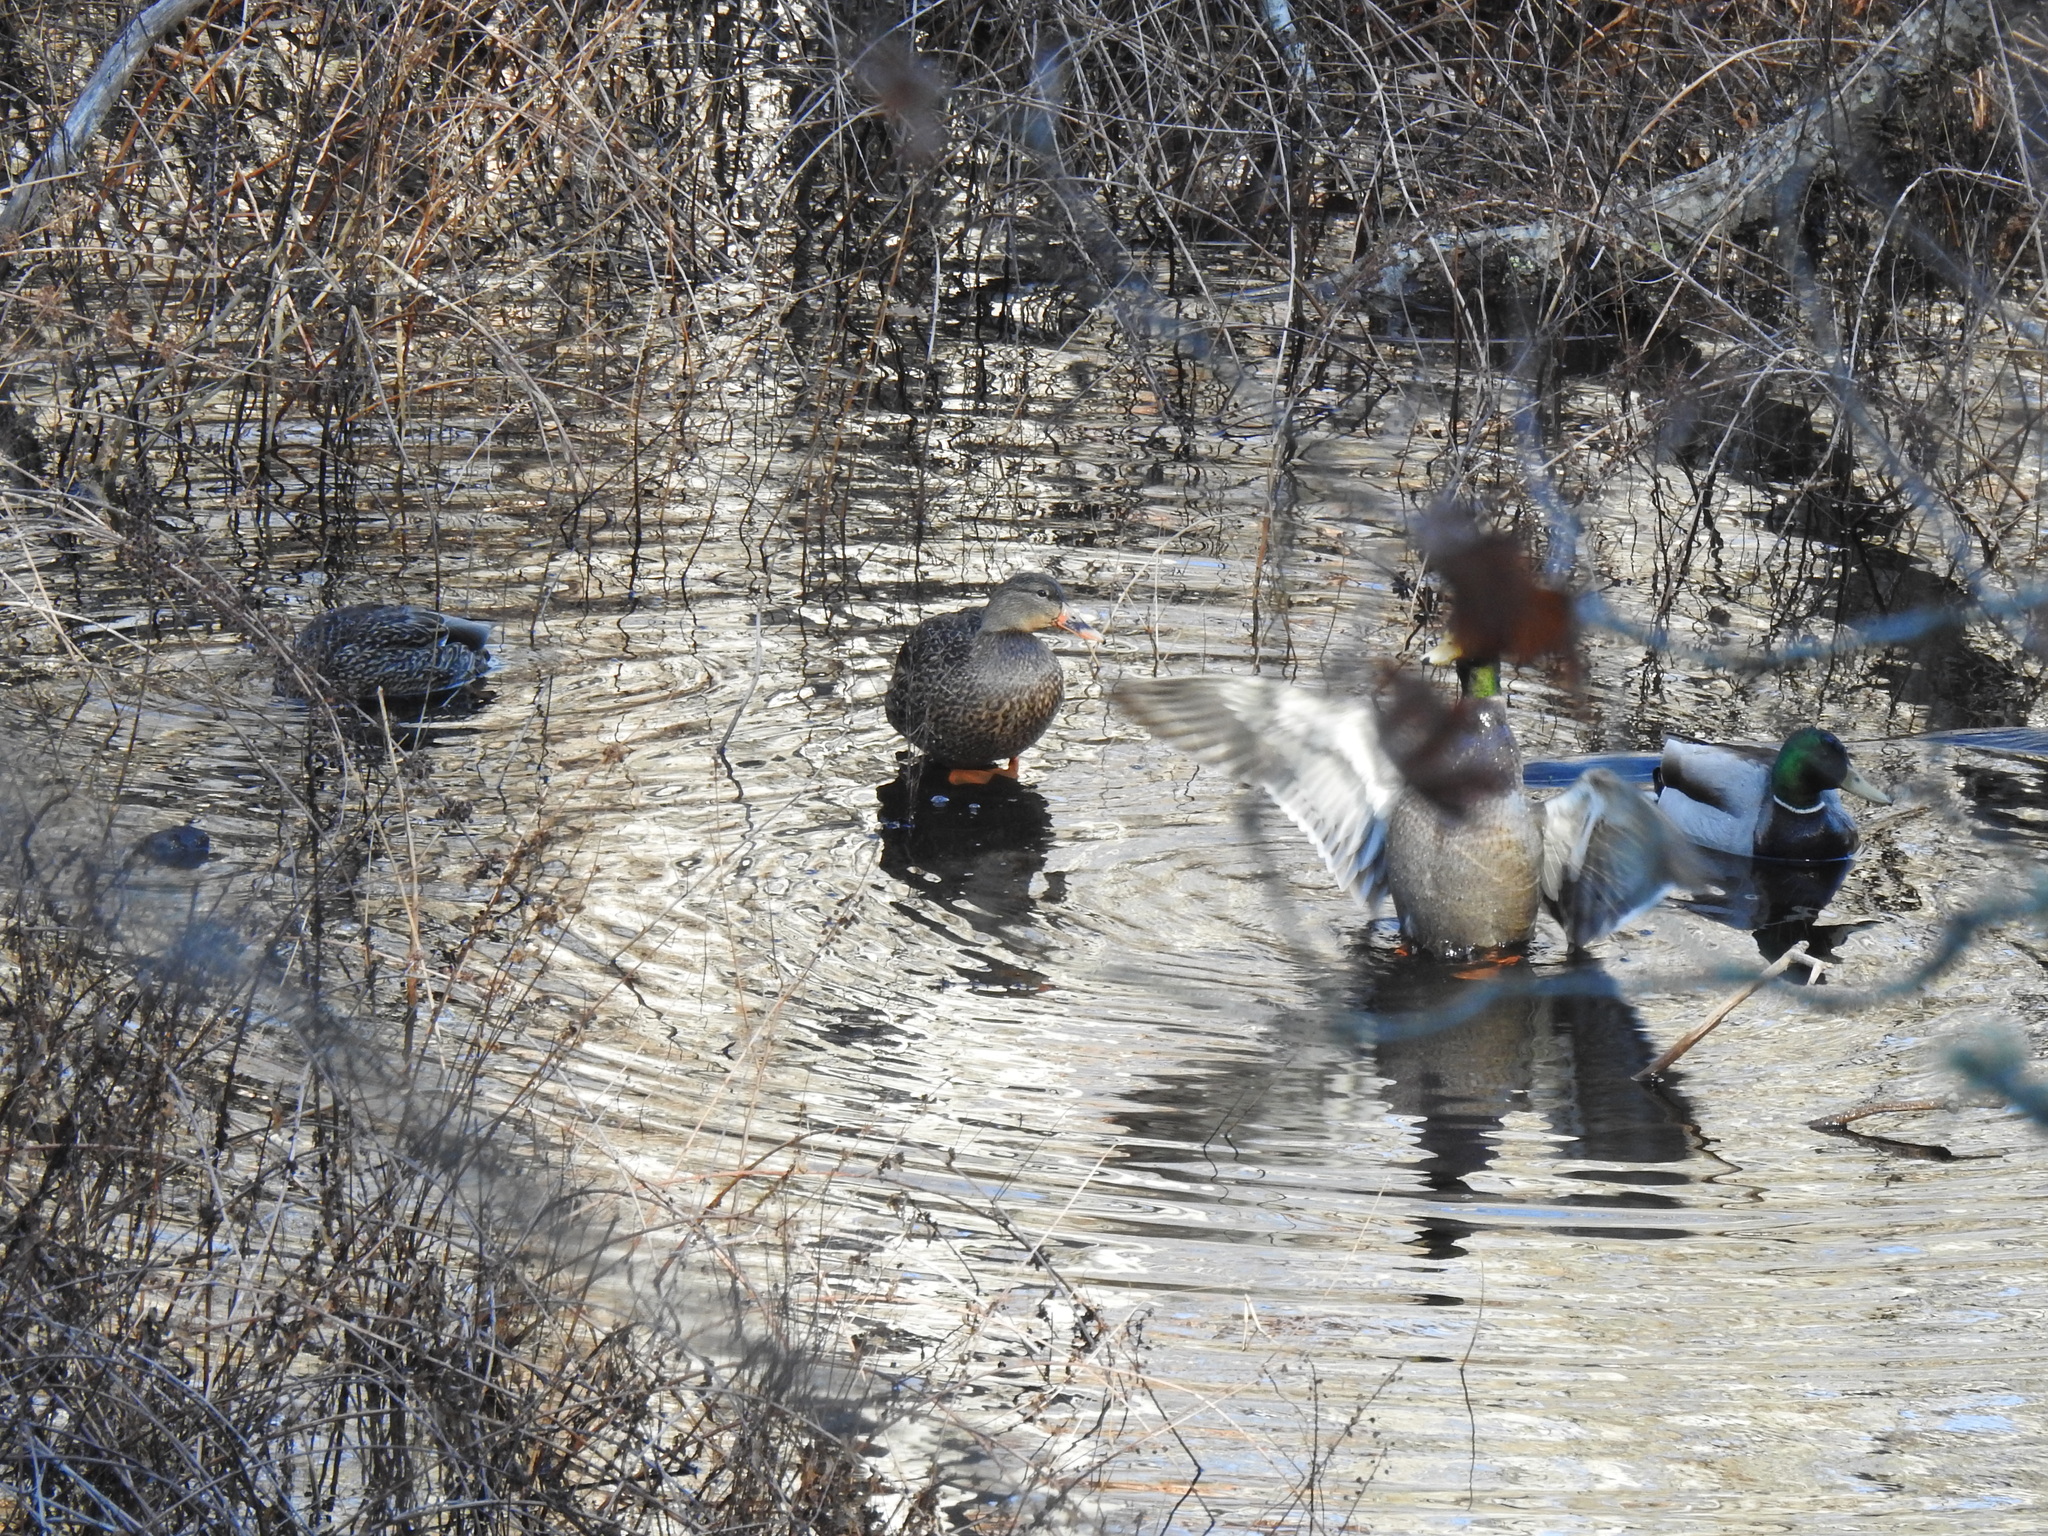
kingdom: Animalia
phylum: Chordata
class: Aves
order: Anseriformes
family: Anatidae
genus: Anas
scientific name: Anas platyrhynchos
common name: Mallard
